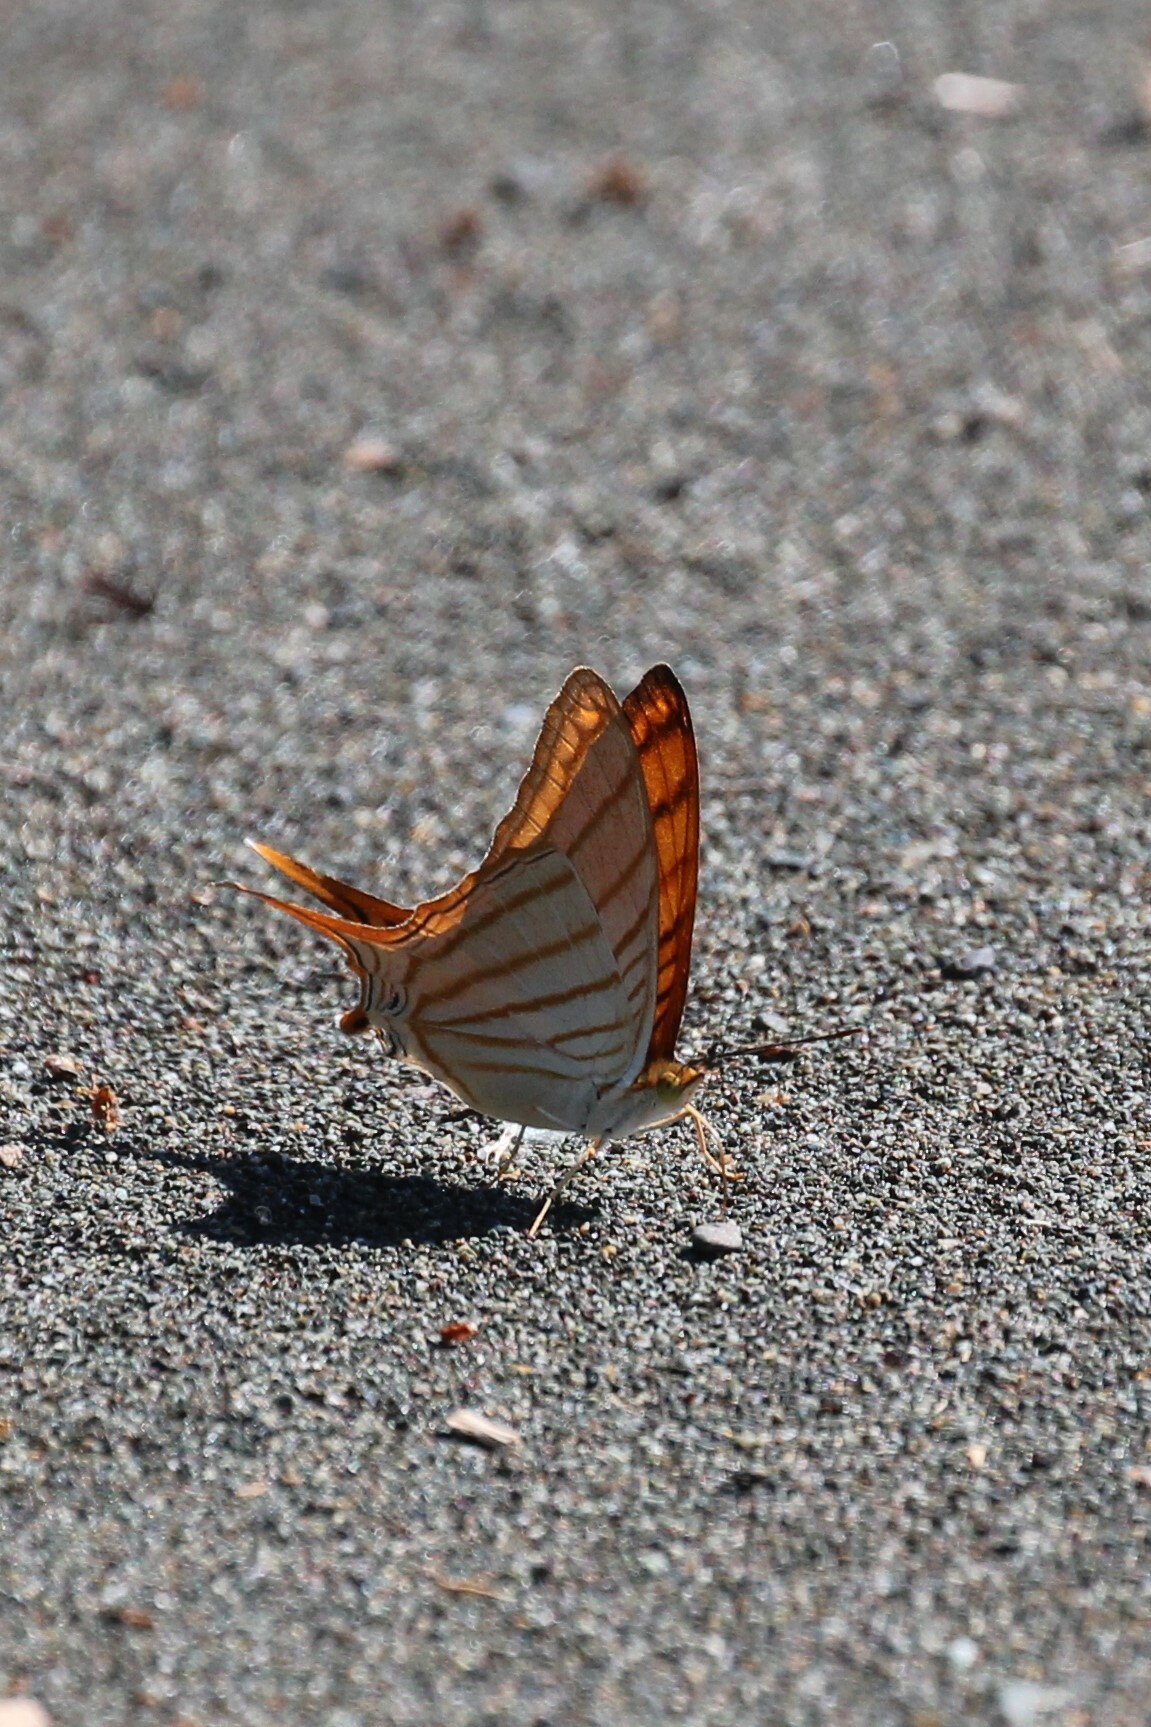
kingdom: Animalia
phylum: Arthropoda
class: Insecta
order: Lepidoptera
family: Nymphalidae
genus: Marpesia
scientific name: Marpesia berania
